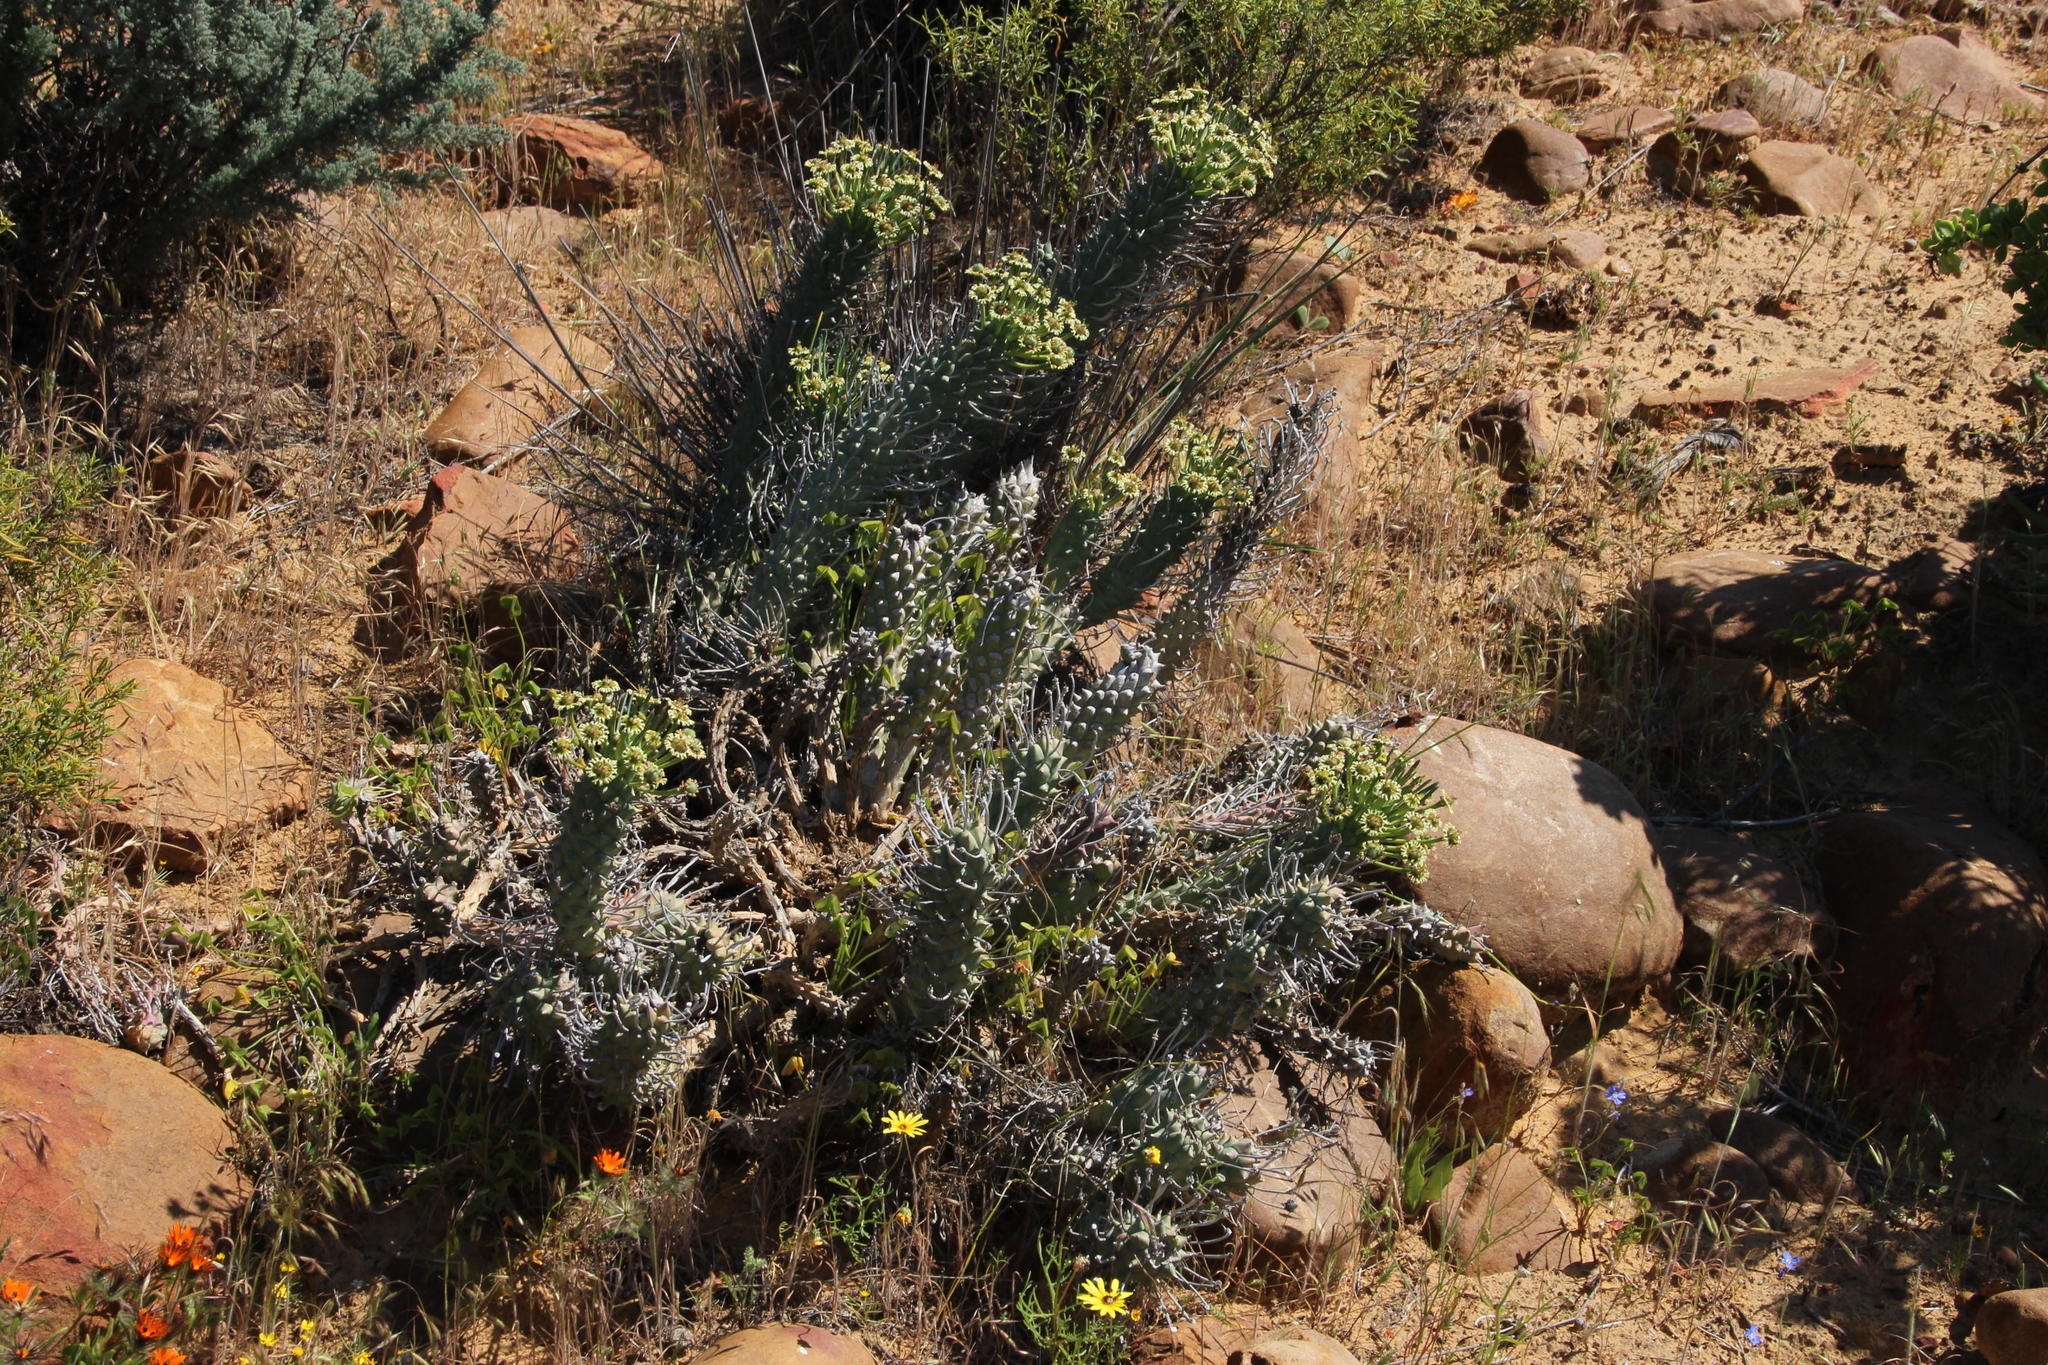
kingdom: Plantae
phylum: Tracheophyta
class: Magnoliopsida
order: Malpighiales
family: Euphorbiaceae
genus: Euphorbia
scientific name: Euphorbia caput-medusae
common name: Medusa's-head
